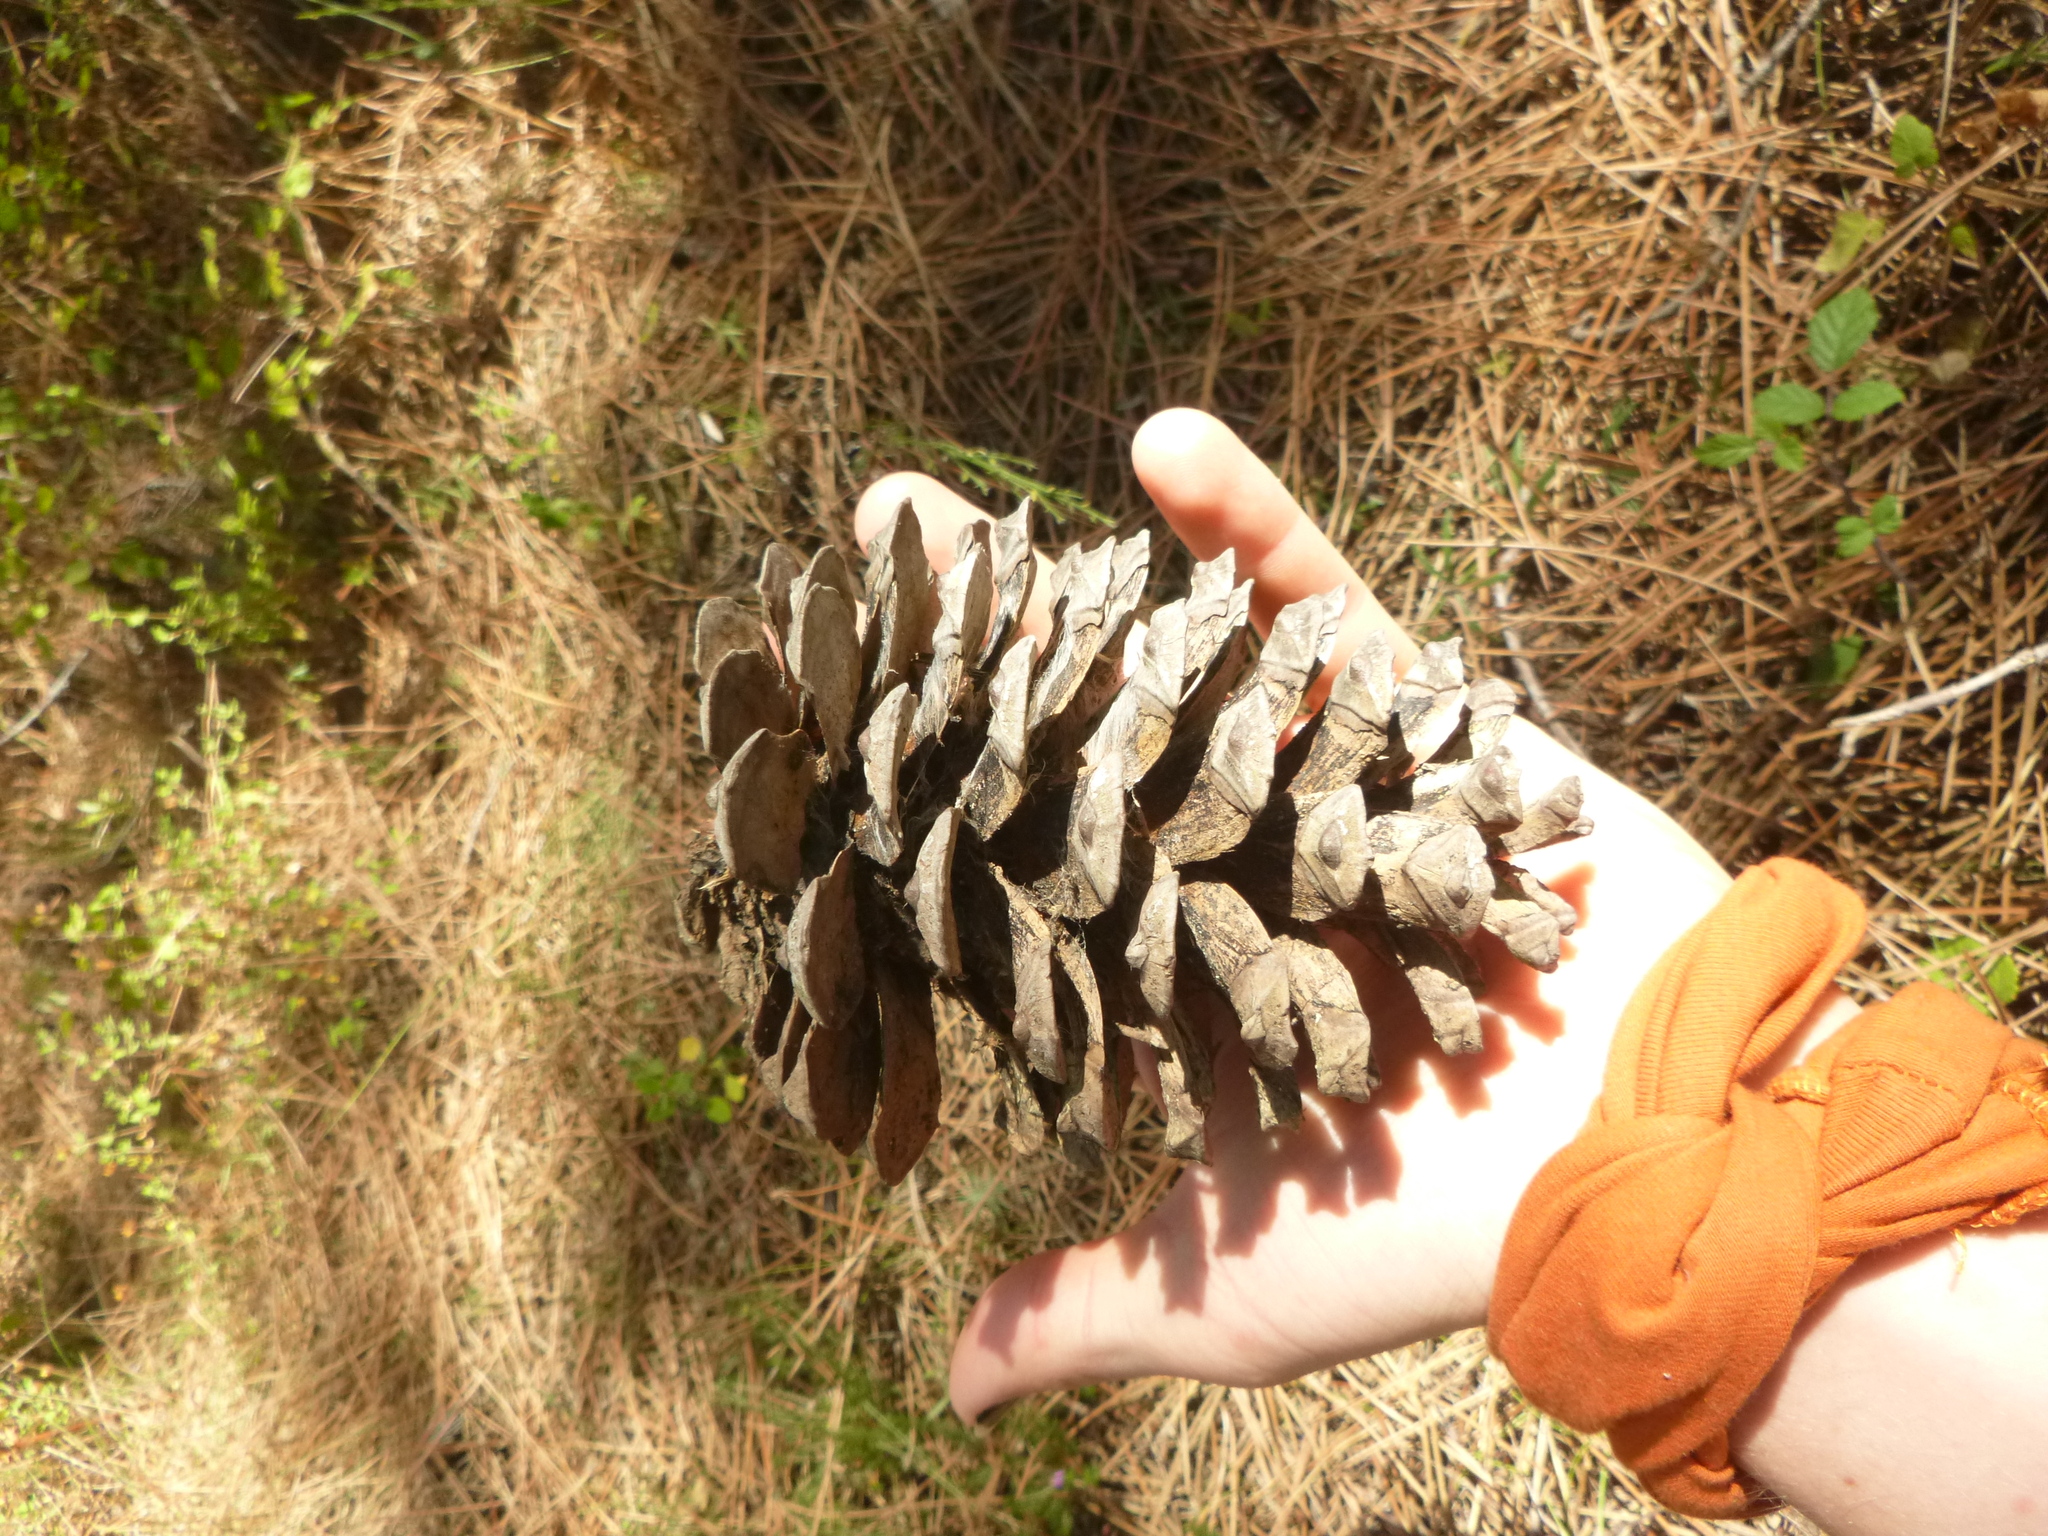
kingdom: Plantae
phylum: Tracheophyta
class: Pinopsida
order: Pinales
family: Pinaceae
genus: Pinus
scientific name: Pinus pinaster
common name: Maritime pine
